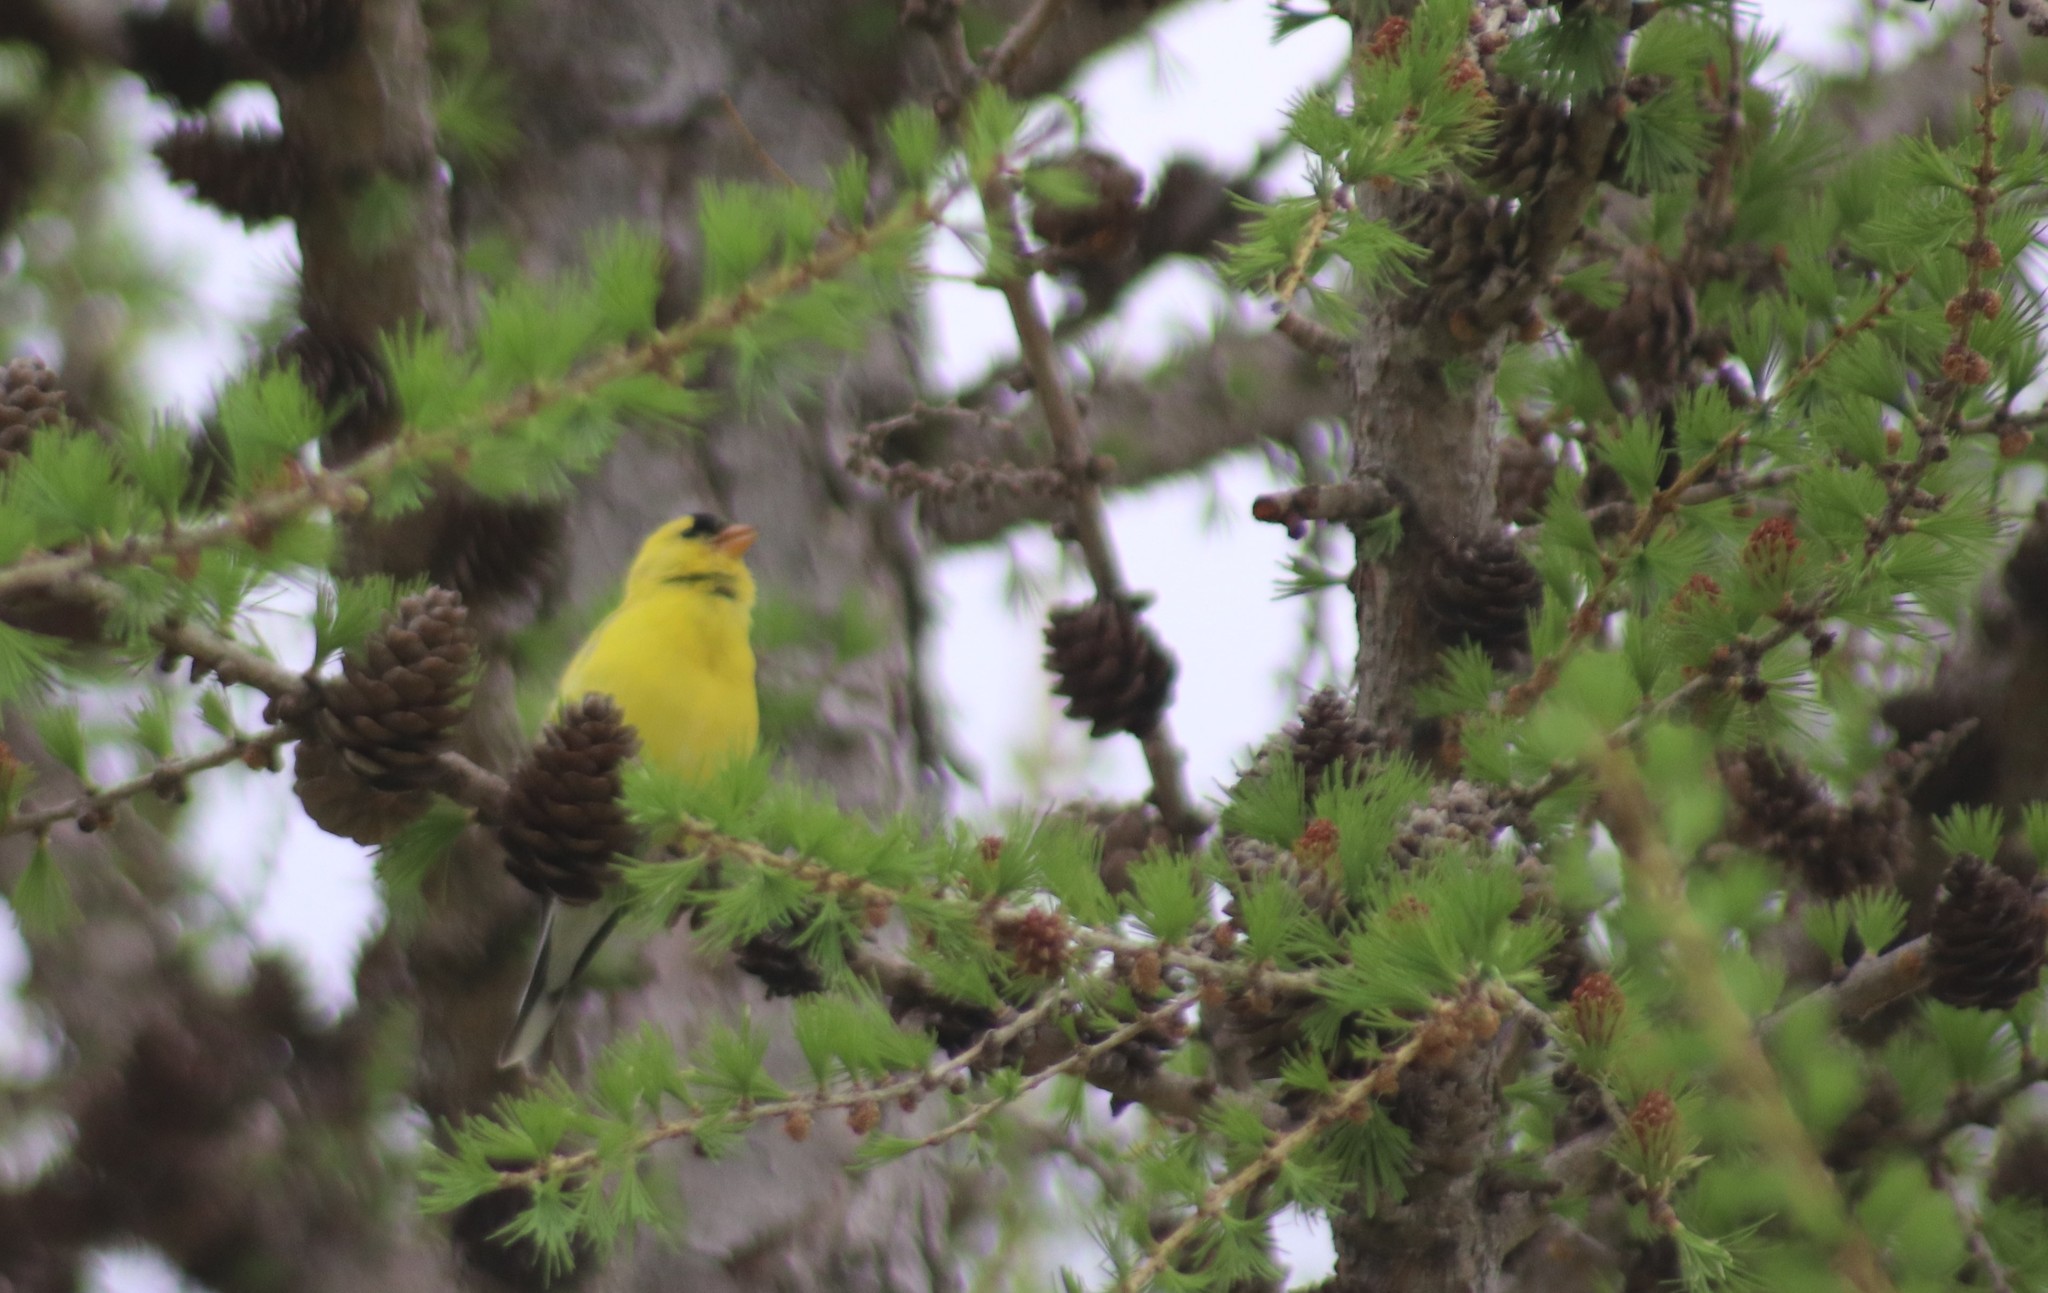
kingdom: Animalia
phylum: Chordata
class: Aves
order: Passeriformes
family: Fringillidae
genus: Spinus
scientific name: Spinus tristis
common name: American goldfinch
